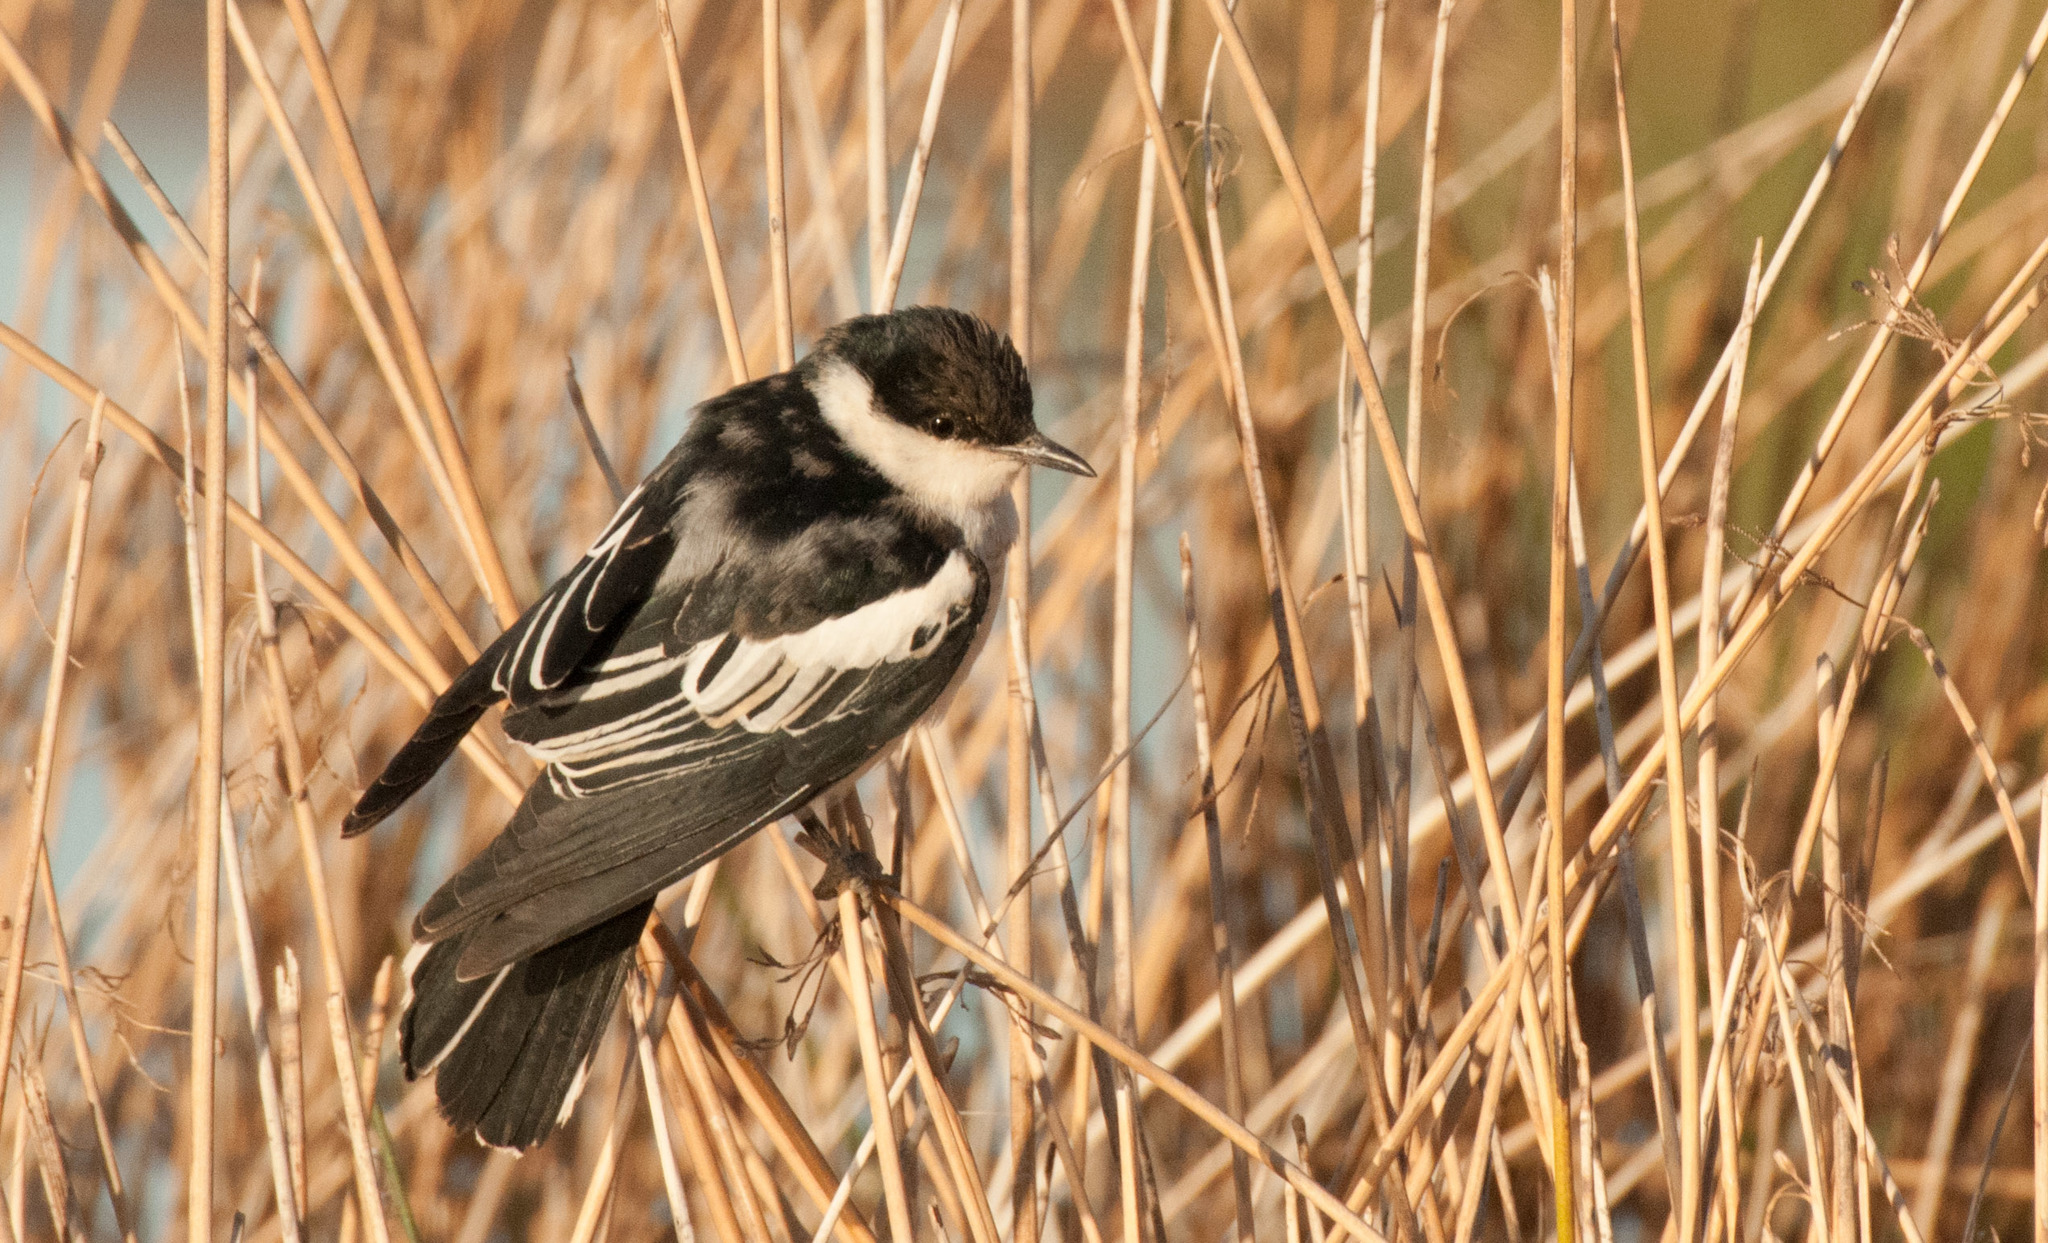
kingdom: Animalia
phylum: Chordata
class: Aves
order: Passeriformes
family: Campephagidae
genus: Lalage
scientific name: Lalage tricolor
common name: White-winged triller
